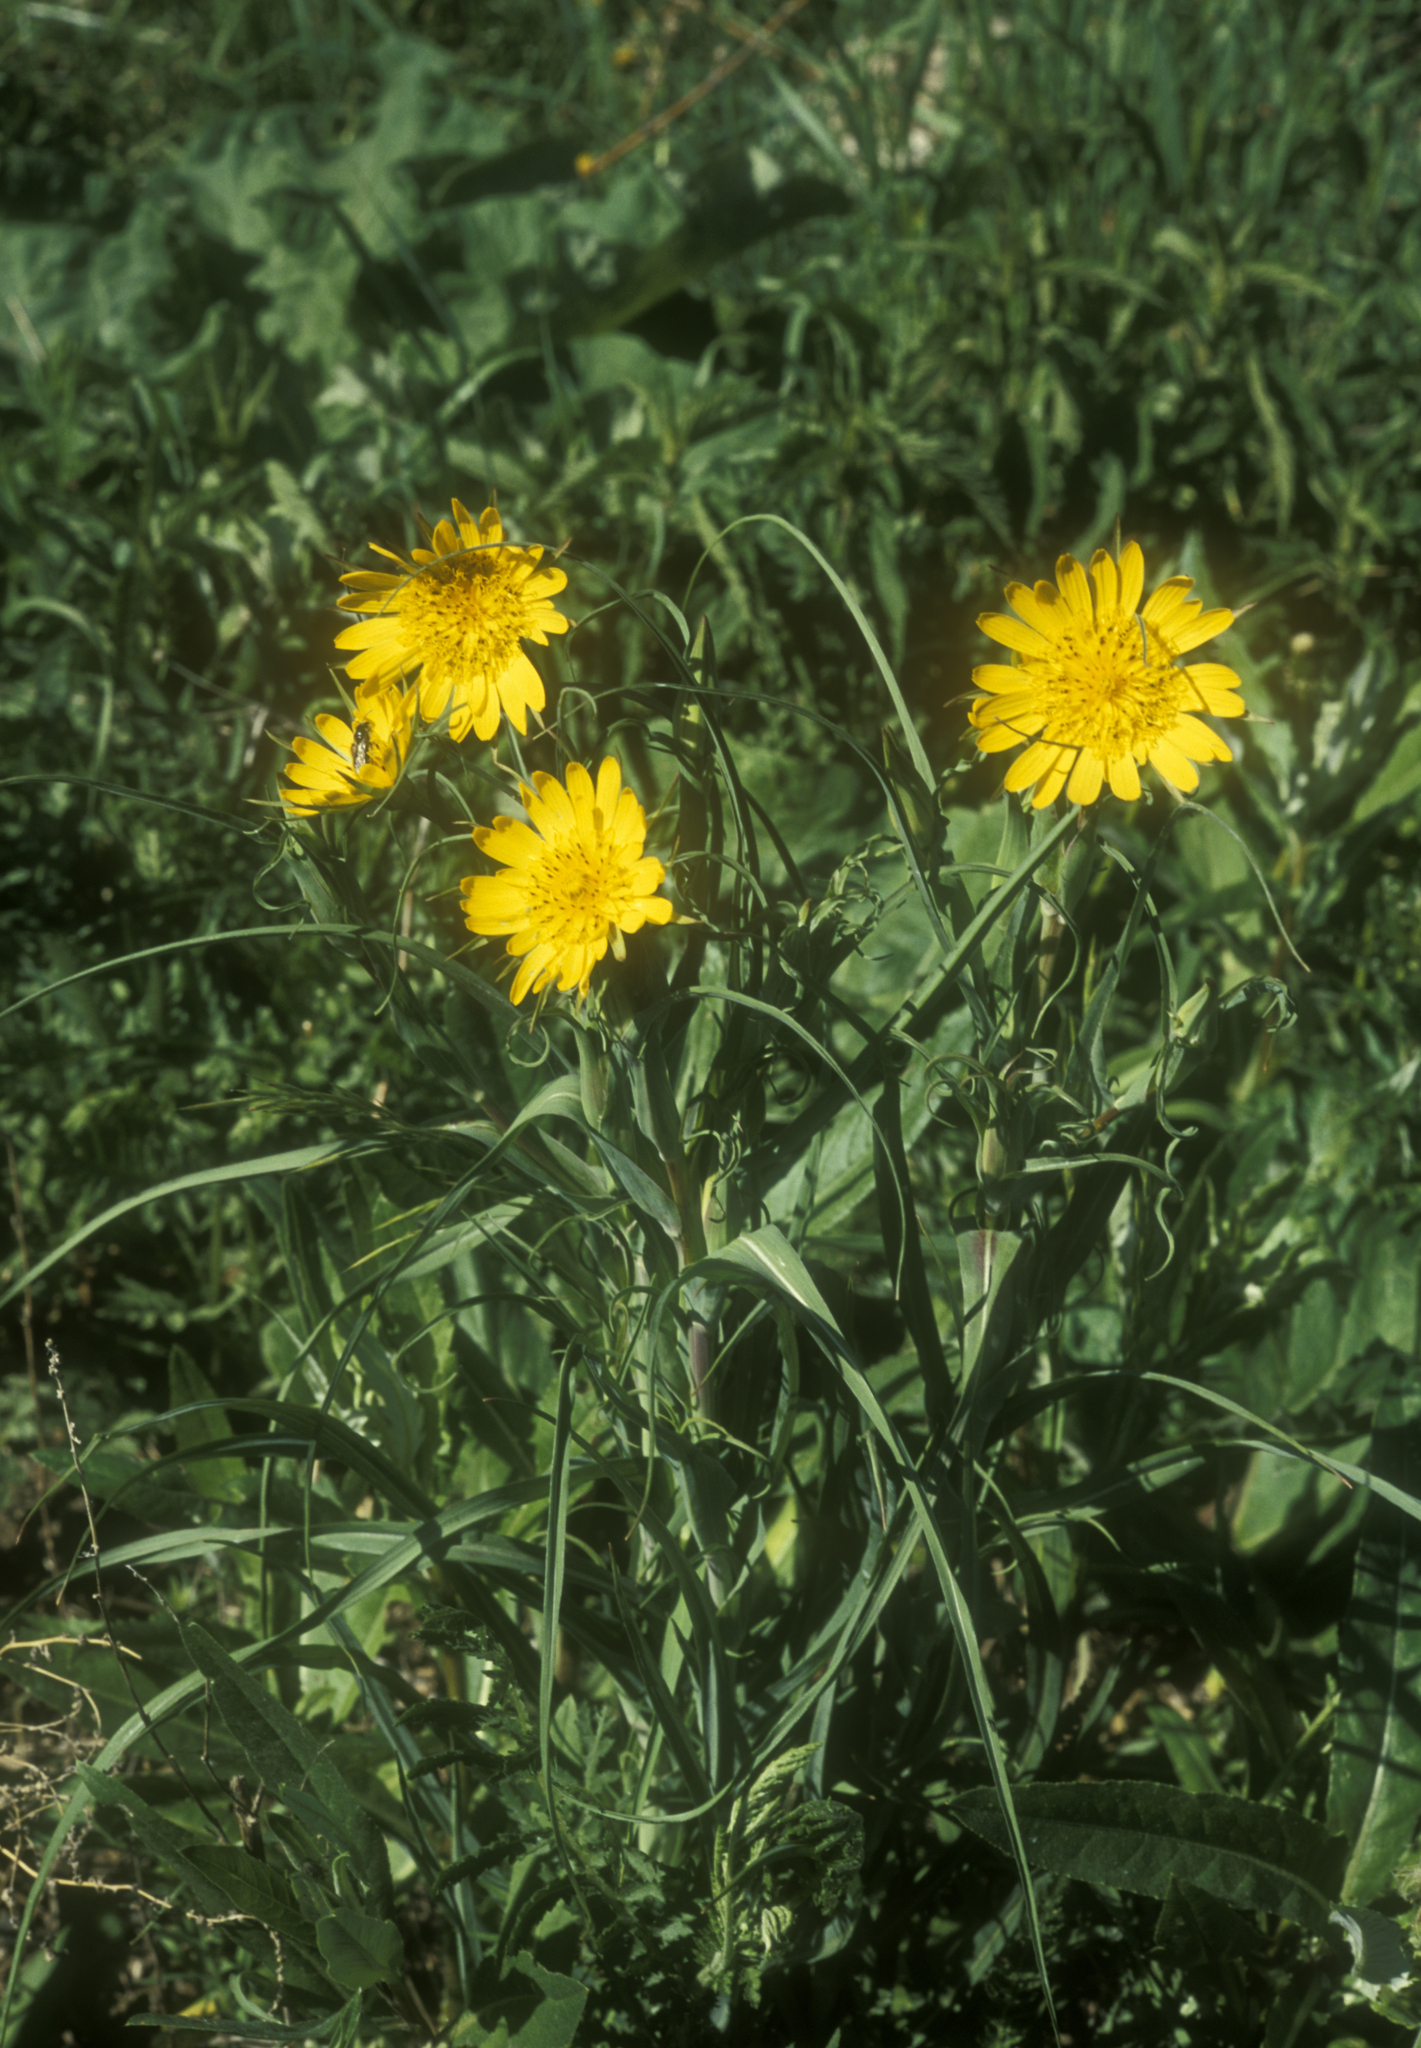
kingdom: Plantae
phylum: Tracheophyta
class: Magnoliopsida
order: Asterales
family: Asteraceae
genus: Tragopogon
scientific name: Tragopogon orientalis
